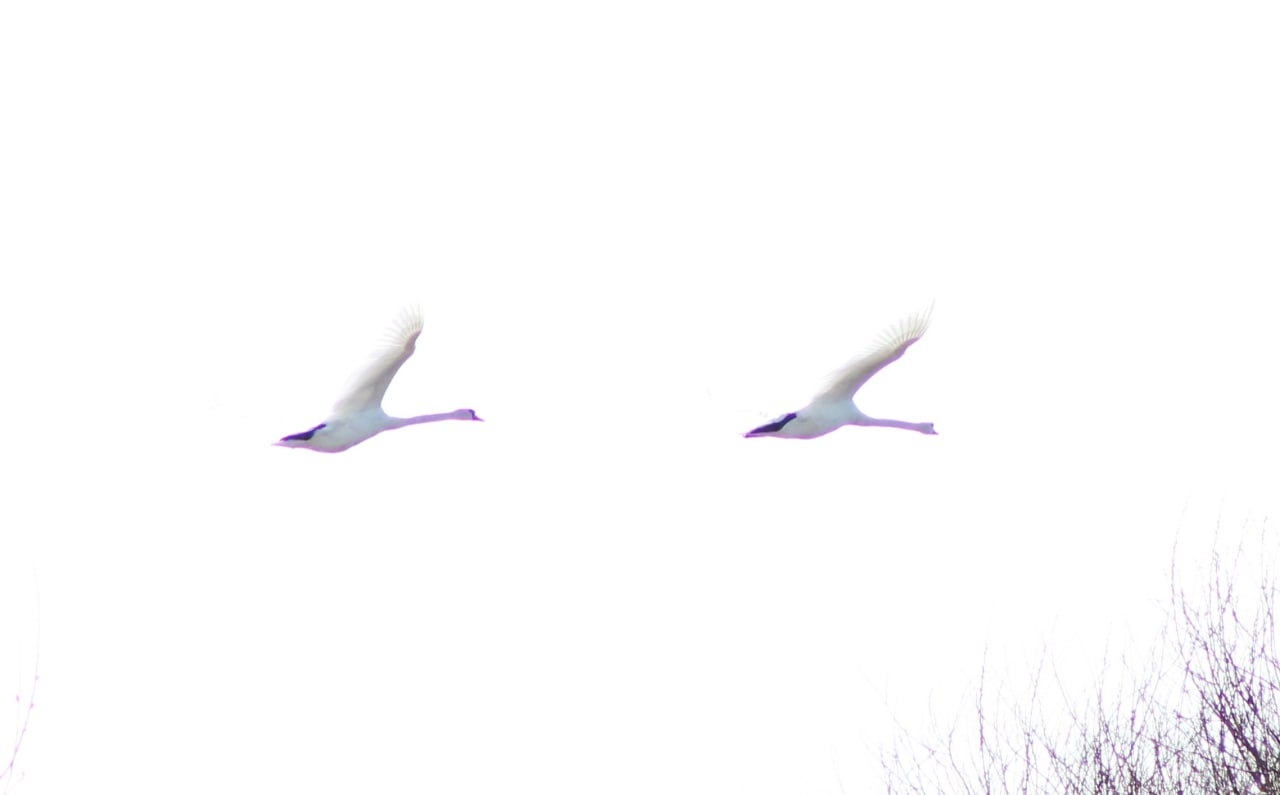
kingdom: Animalia
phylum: Chordata
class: Aves
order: Anseriformes
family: Anatidae
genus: Cygnus
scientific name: Cygnus olor
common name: Mute swan
